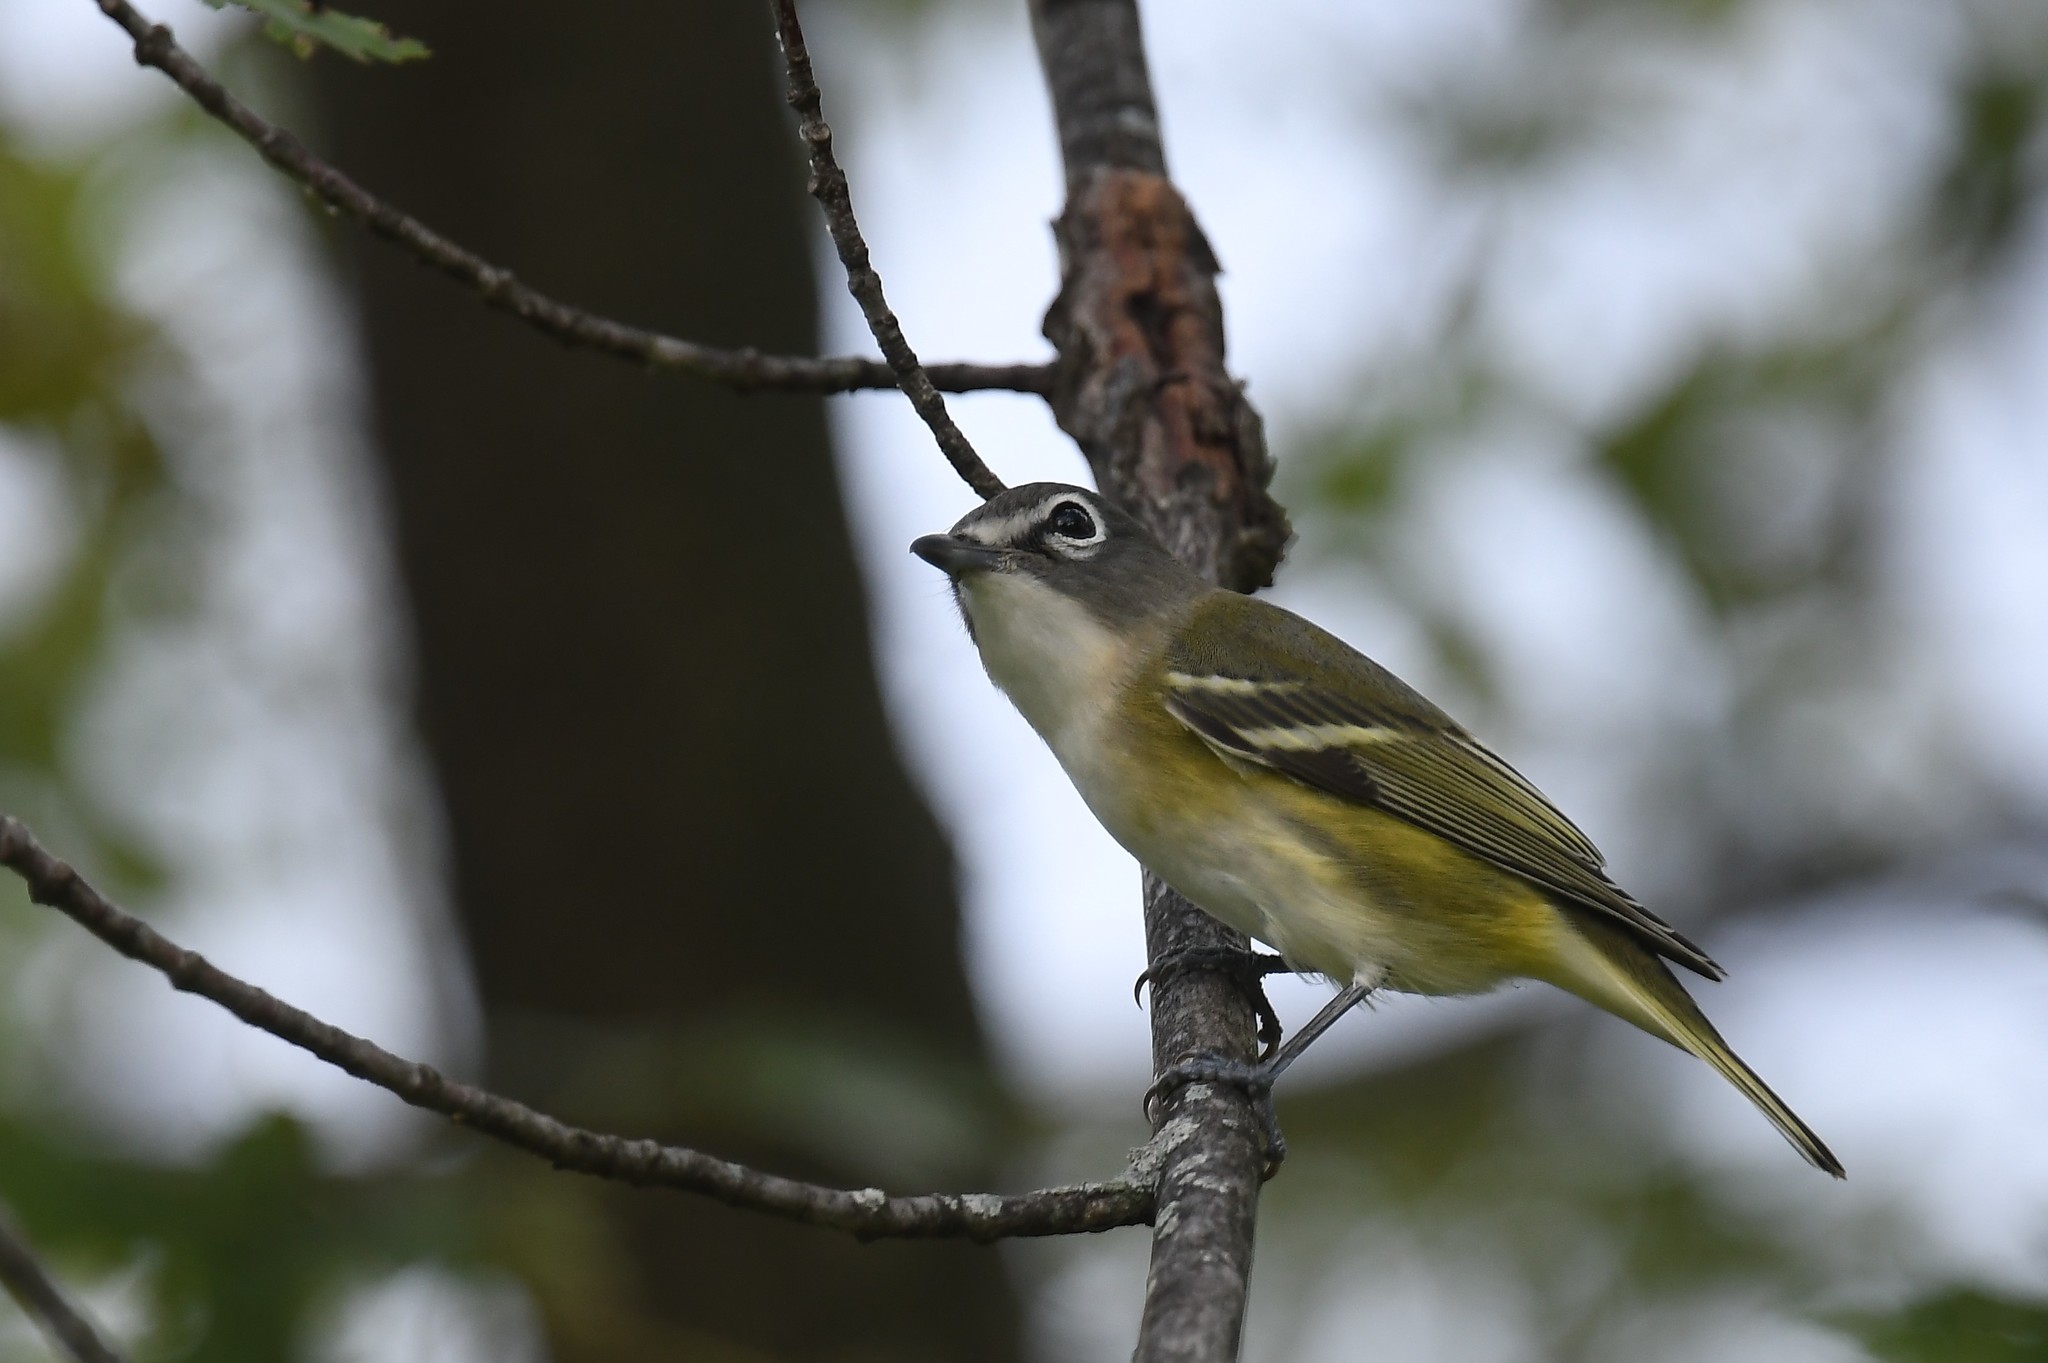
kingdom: Animalia
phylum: Chordata
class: Aves
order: Passeriformes
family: Vireonidae
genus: Vireo
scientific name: Vireo solitarius
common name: Blue-headed vireo
